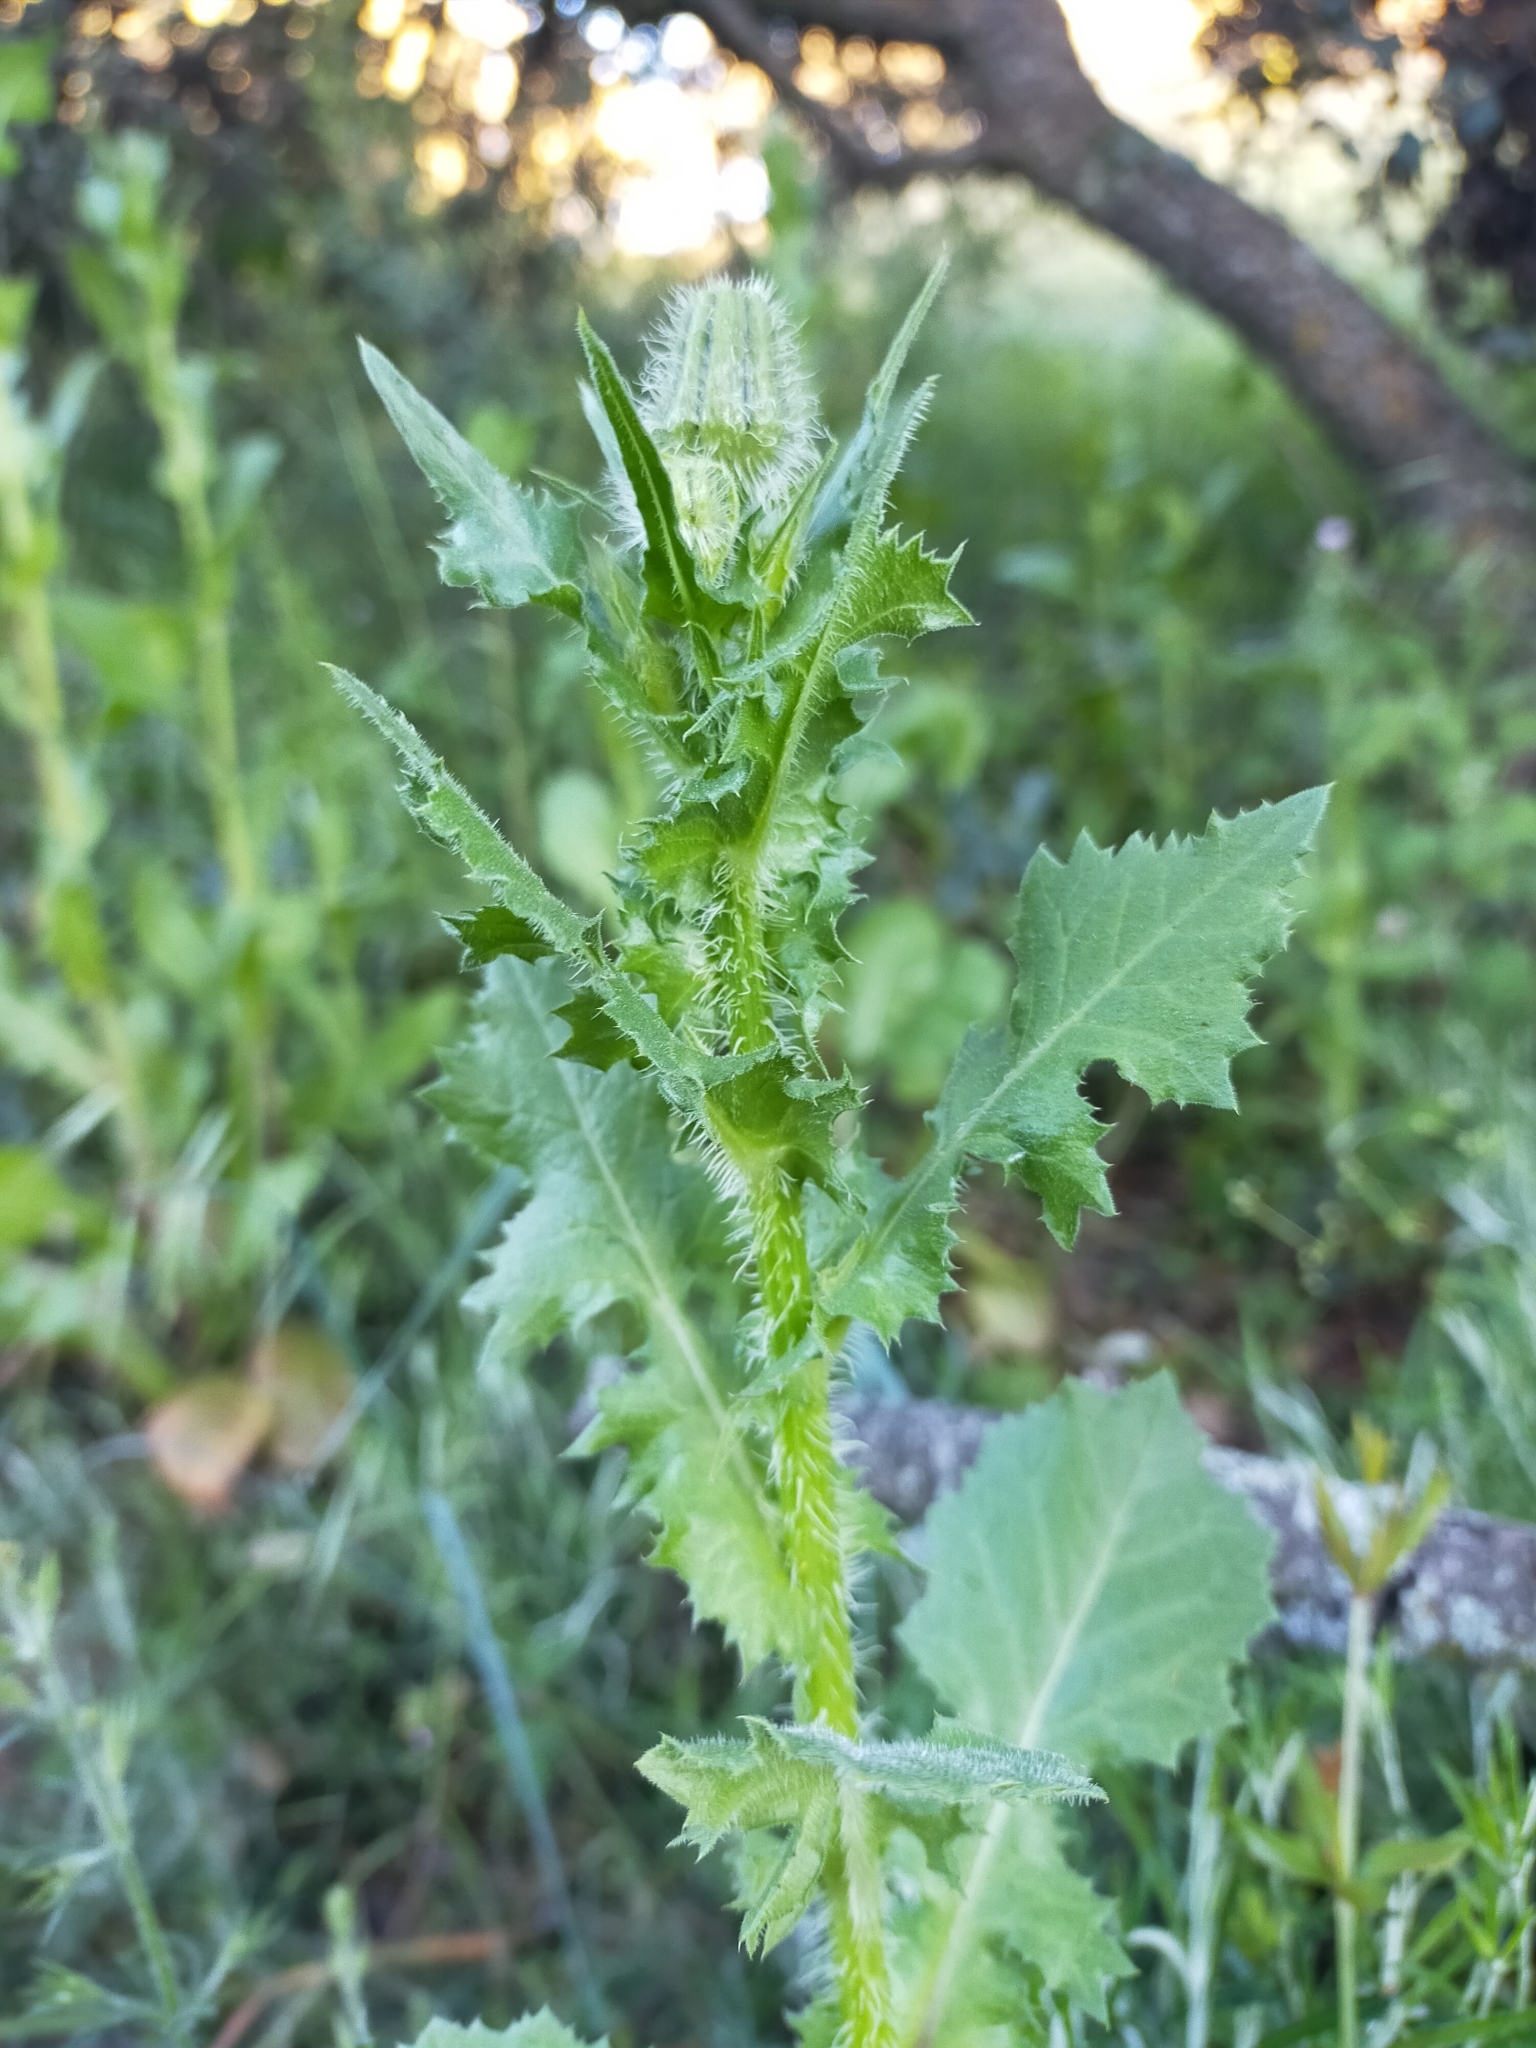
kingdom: Plantae
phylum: Tracheophyta
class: Magnoliopsida
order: Asterales
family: Asteraceae
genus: Urospermum
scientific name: Urospermum picroides
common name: False hawkbit
